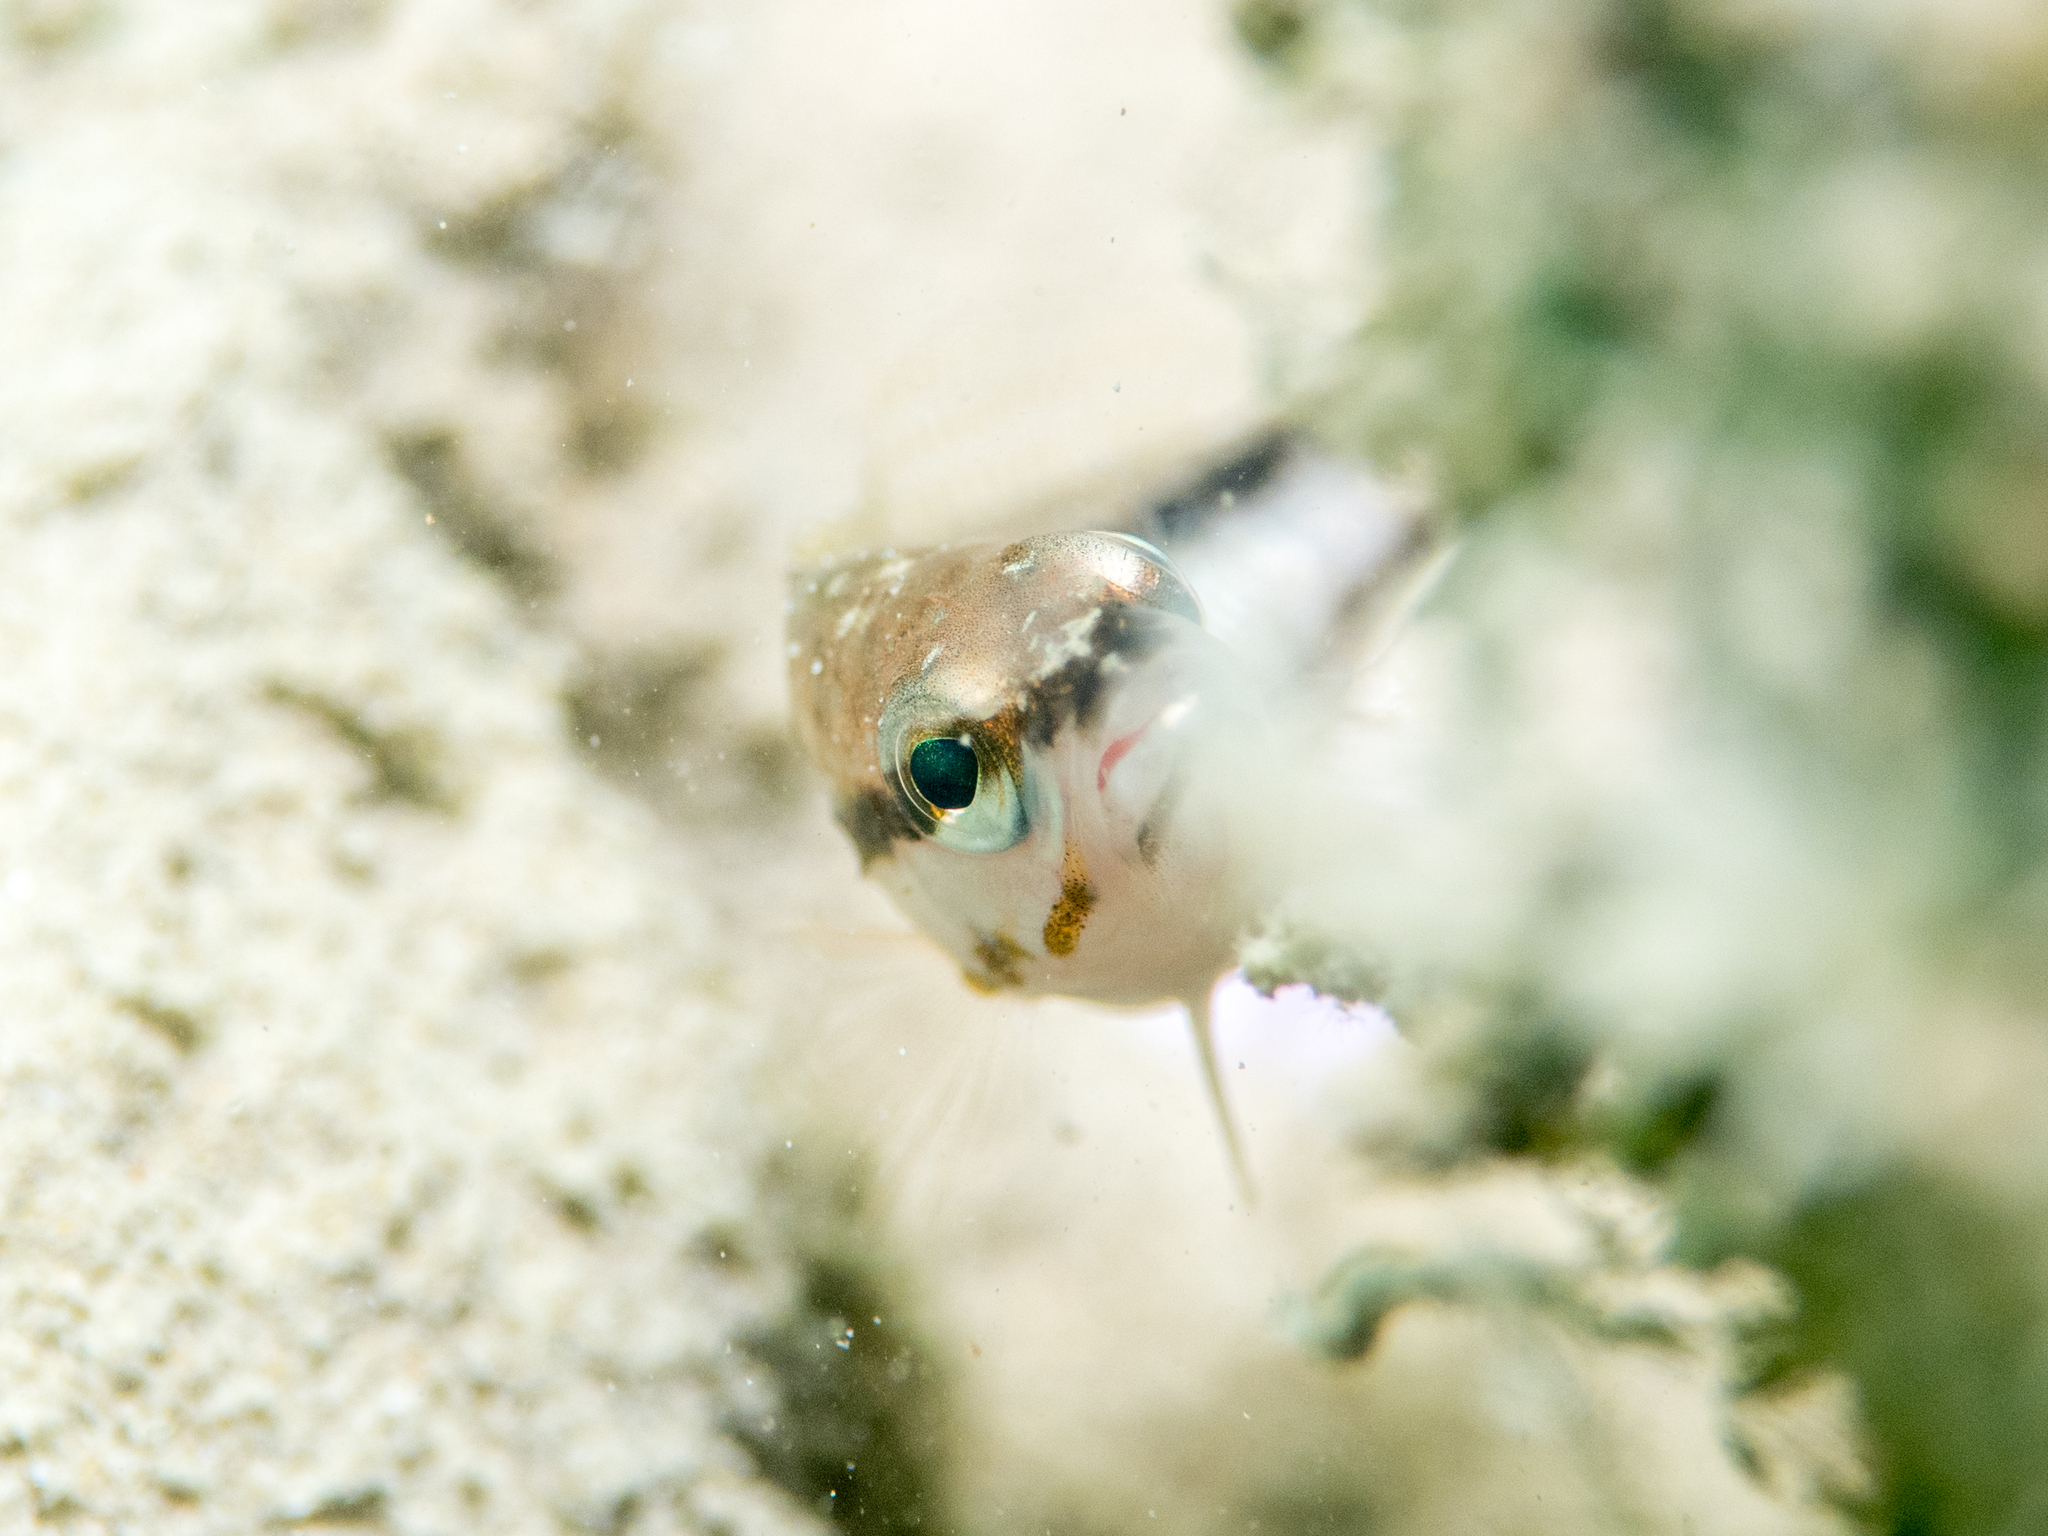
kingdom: Animalia
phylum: Chordata
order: Perciformes
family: Serranidae
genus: Serranus
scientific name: Serranus cabrilla
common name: Comber
